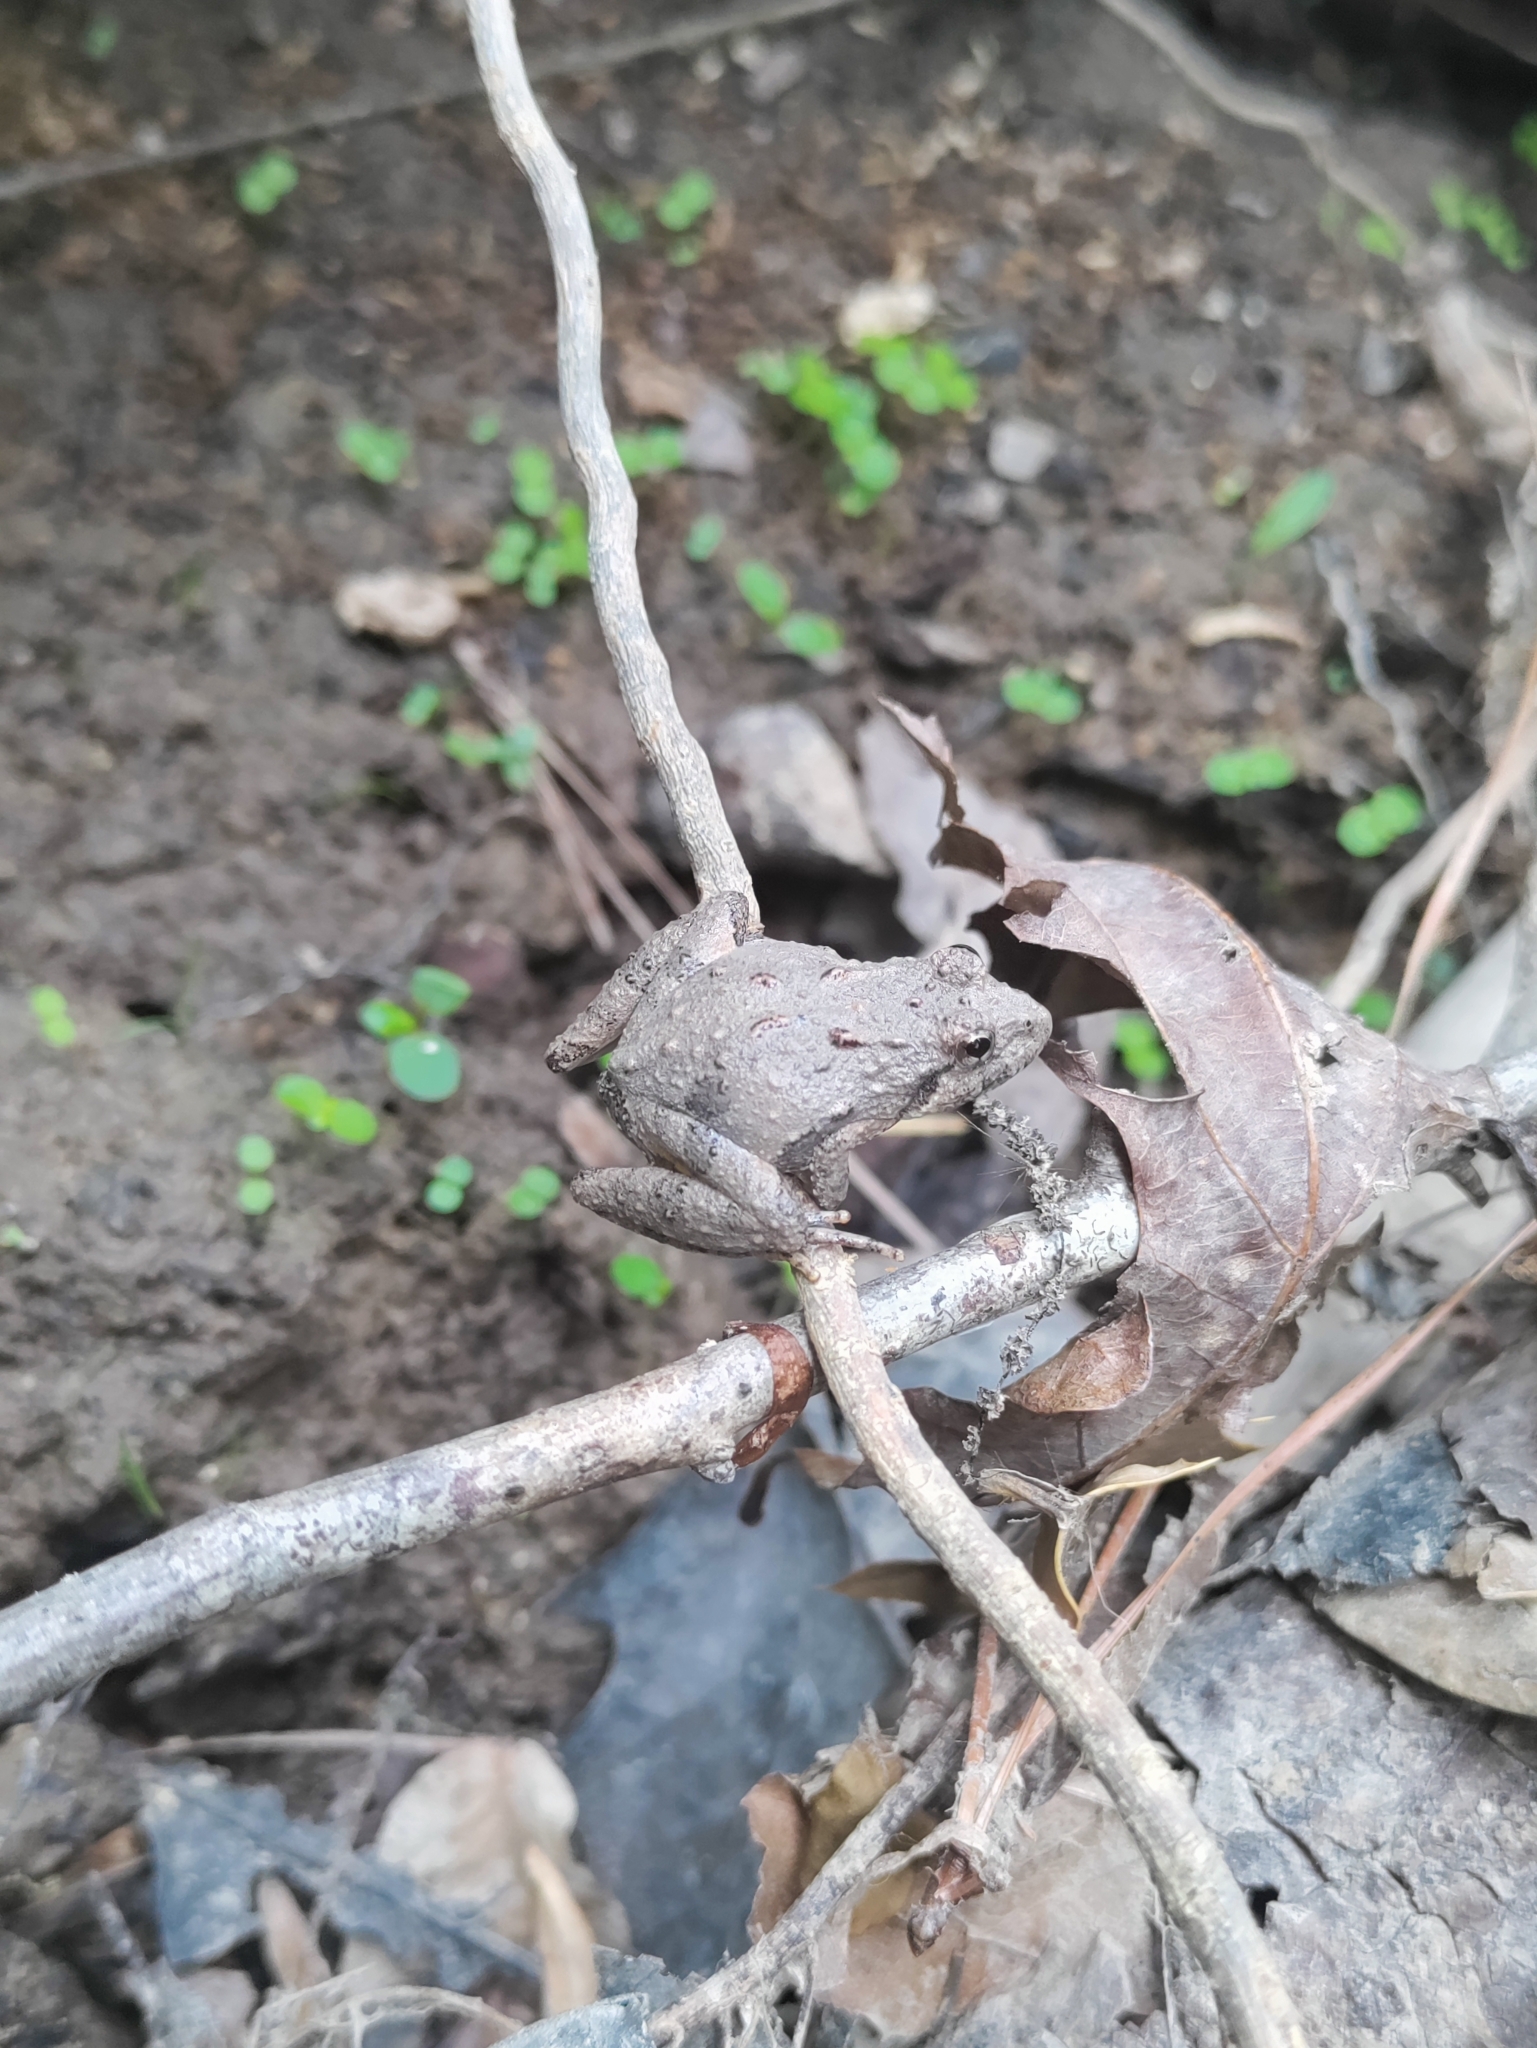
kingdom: Animalia
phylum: Chordata
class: Amphibia
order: Anura
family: Hylidae
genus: Acris
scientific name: Acris crepitans
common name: Northern cricket frog
